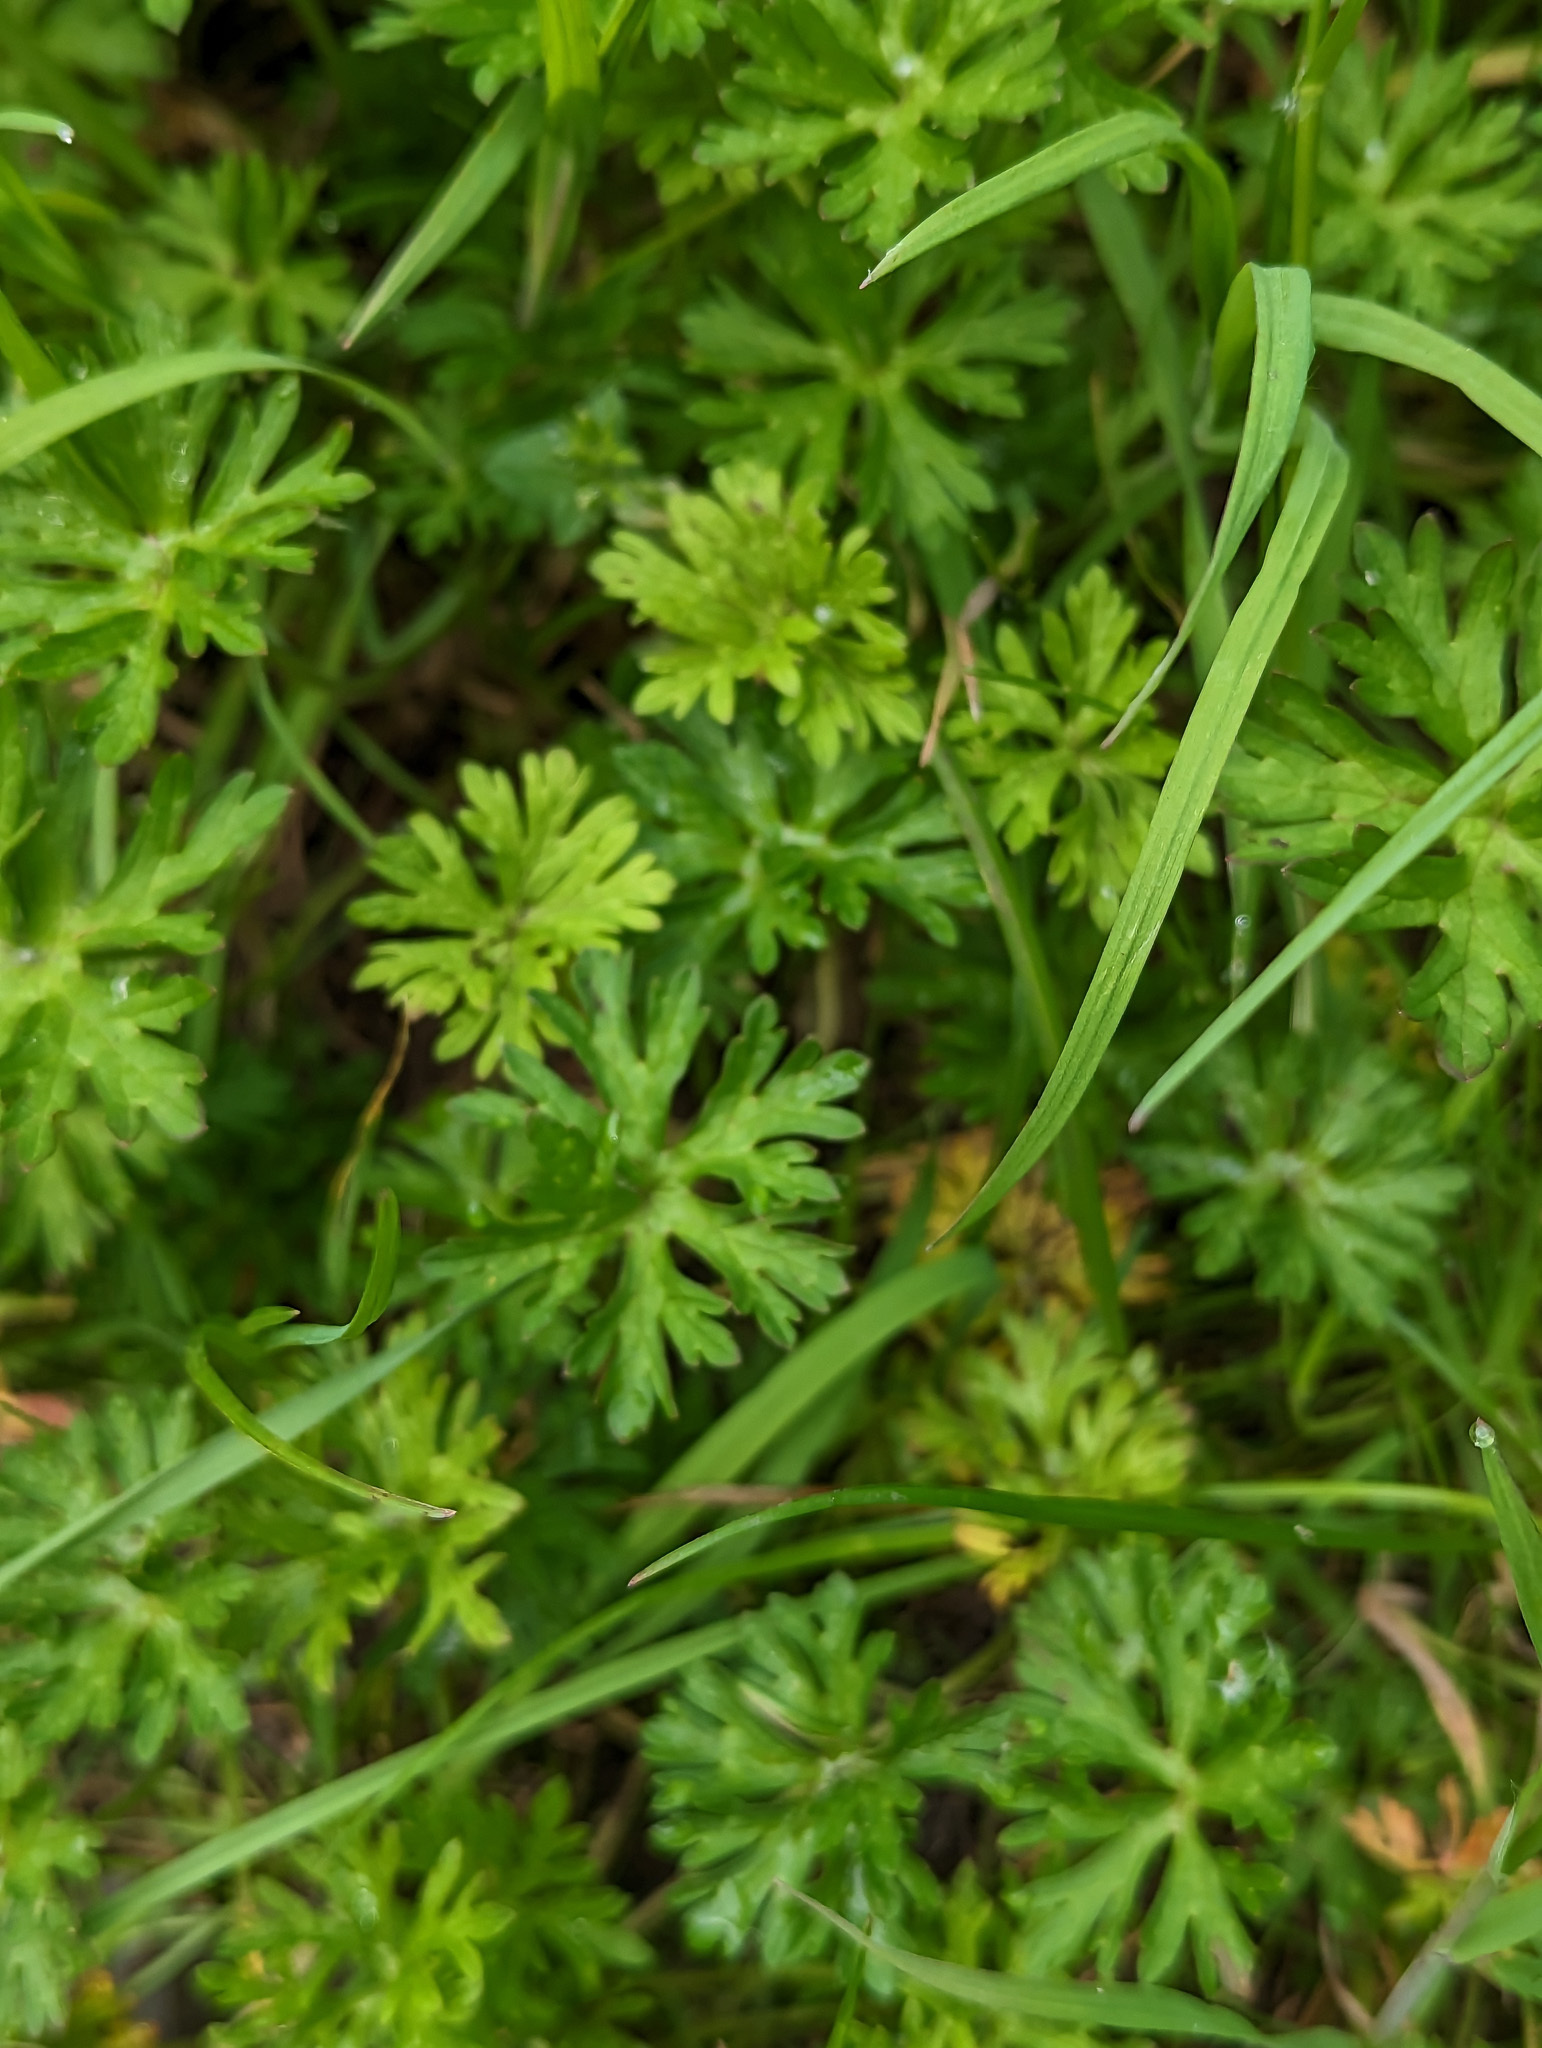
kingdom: Plantae
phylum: Tracheophyta
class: Magnoliopsida
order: Geraniales
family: Geraniaceae
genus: Geranium
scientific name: Geranium dissectum
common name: Cut-leaved crane's-bill
